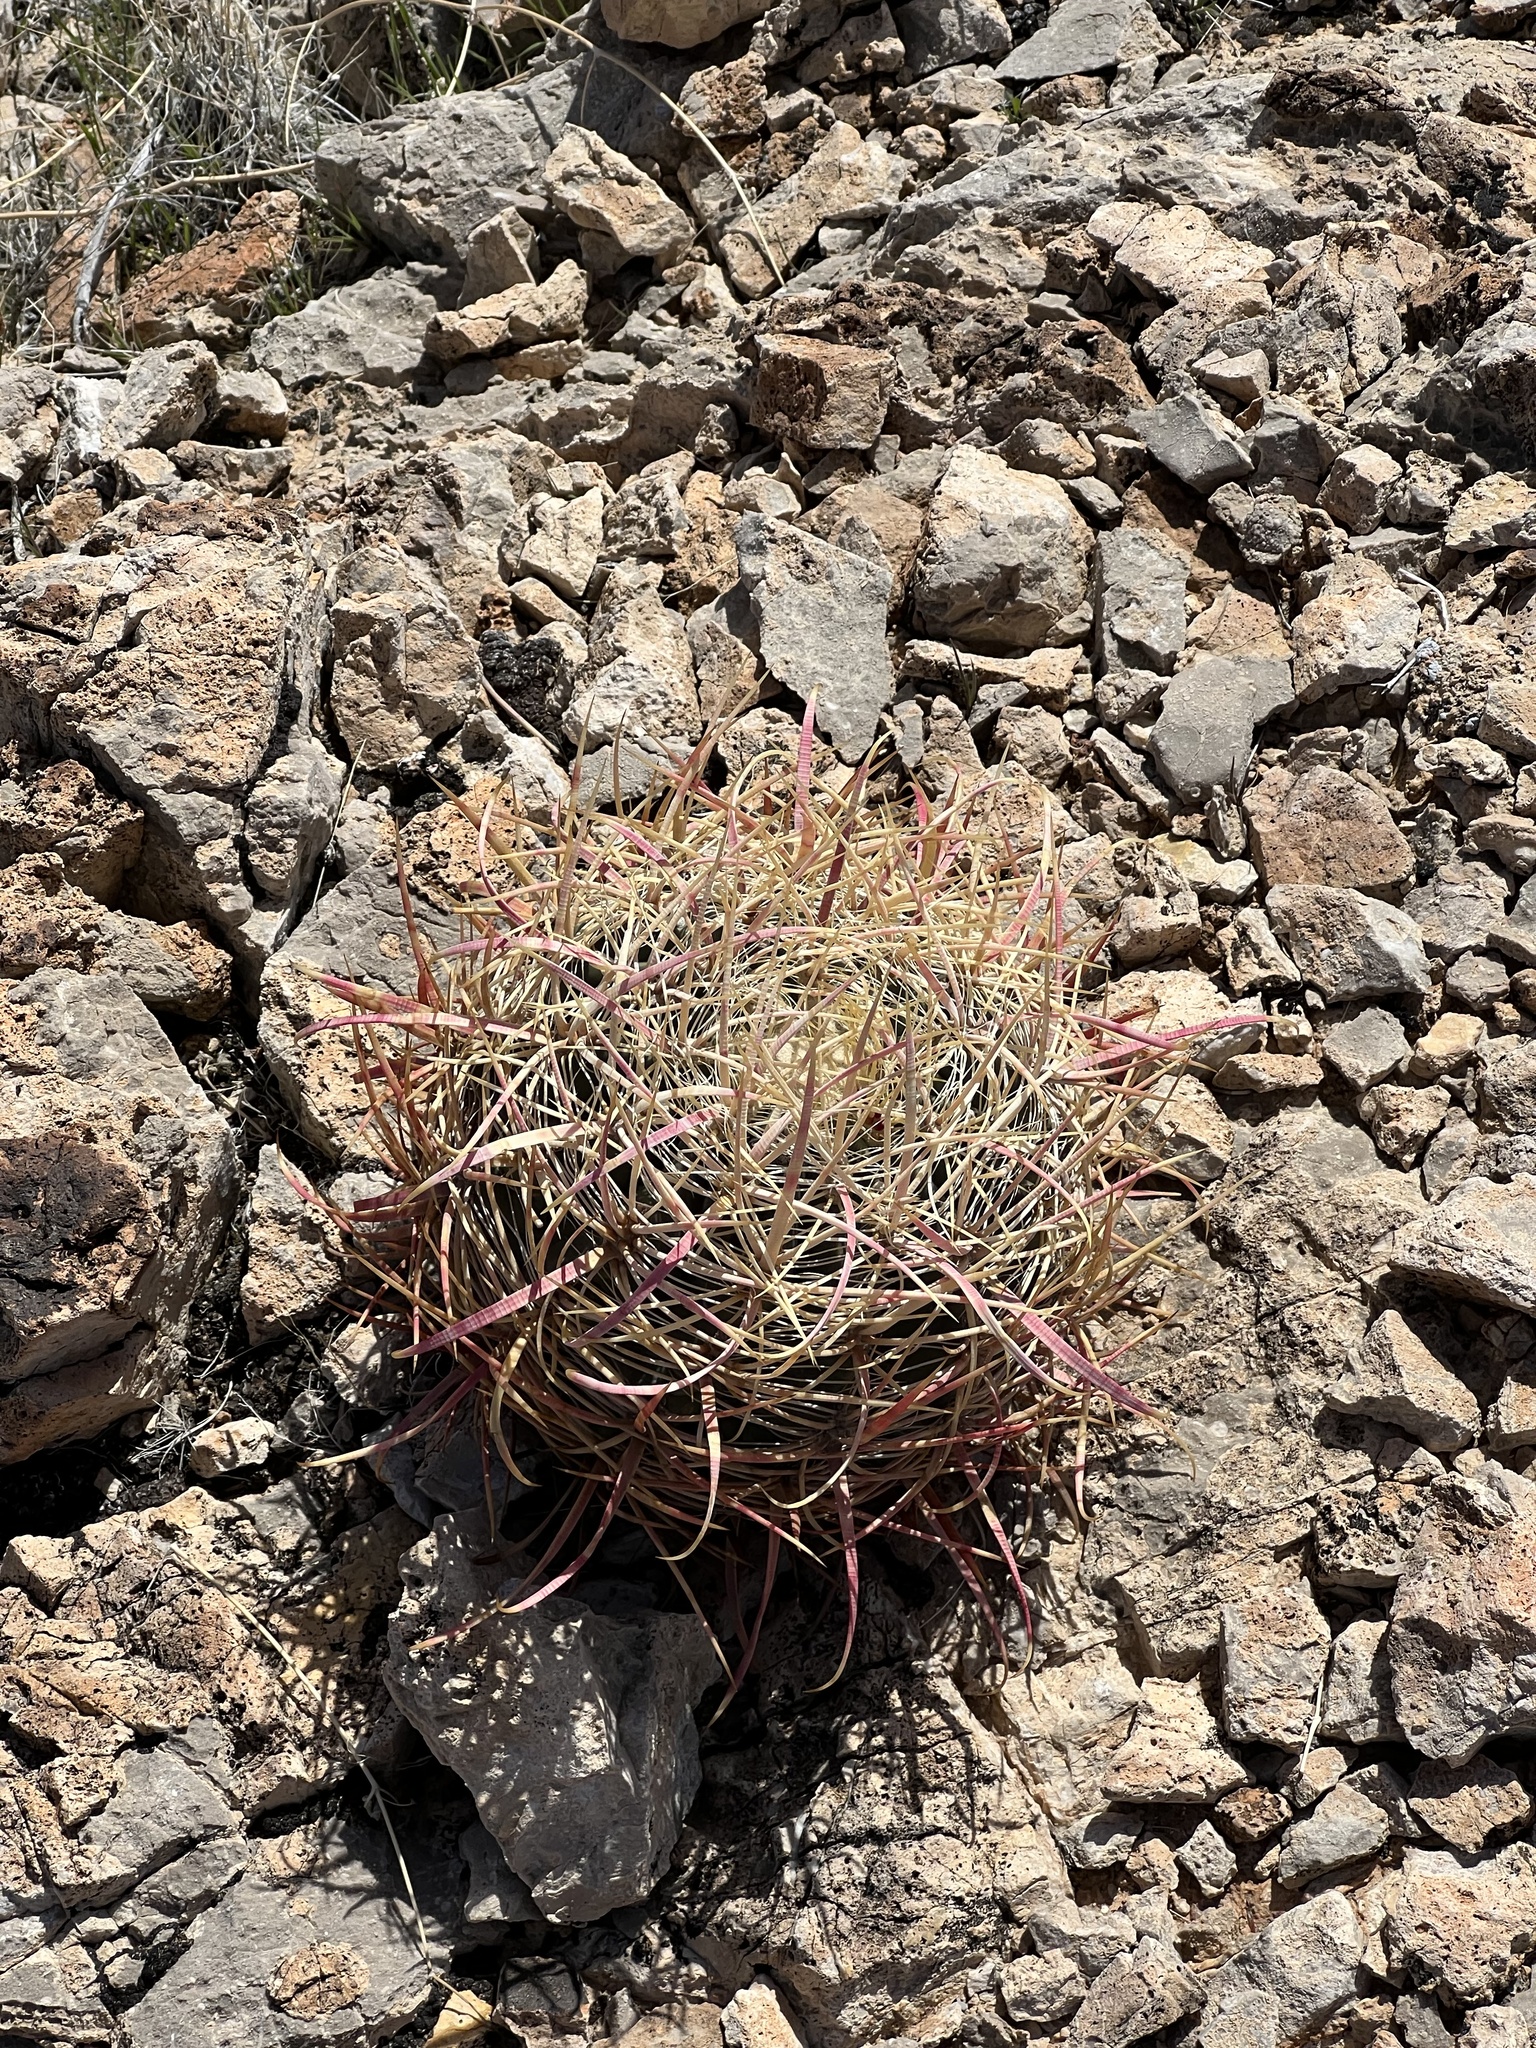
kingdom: Plantae
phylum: Tracheophyta
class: Magnoliopsida
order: Caryophyllales
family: Cactaceae
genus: Ferocactus
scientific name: Ferocactus cylindraceus
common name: California barrel cactus
